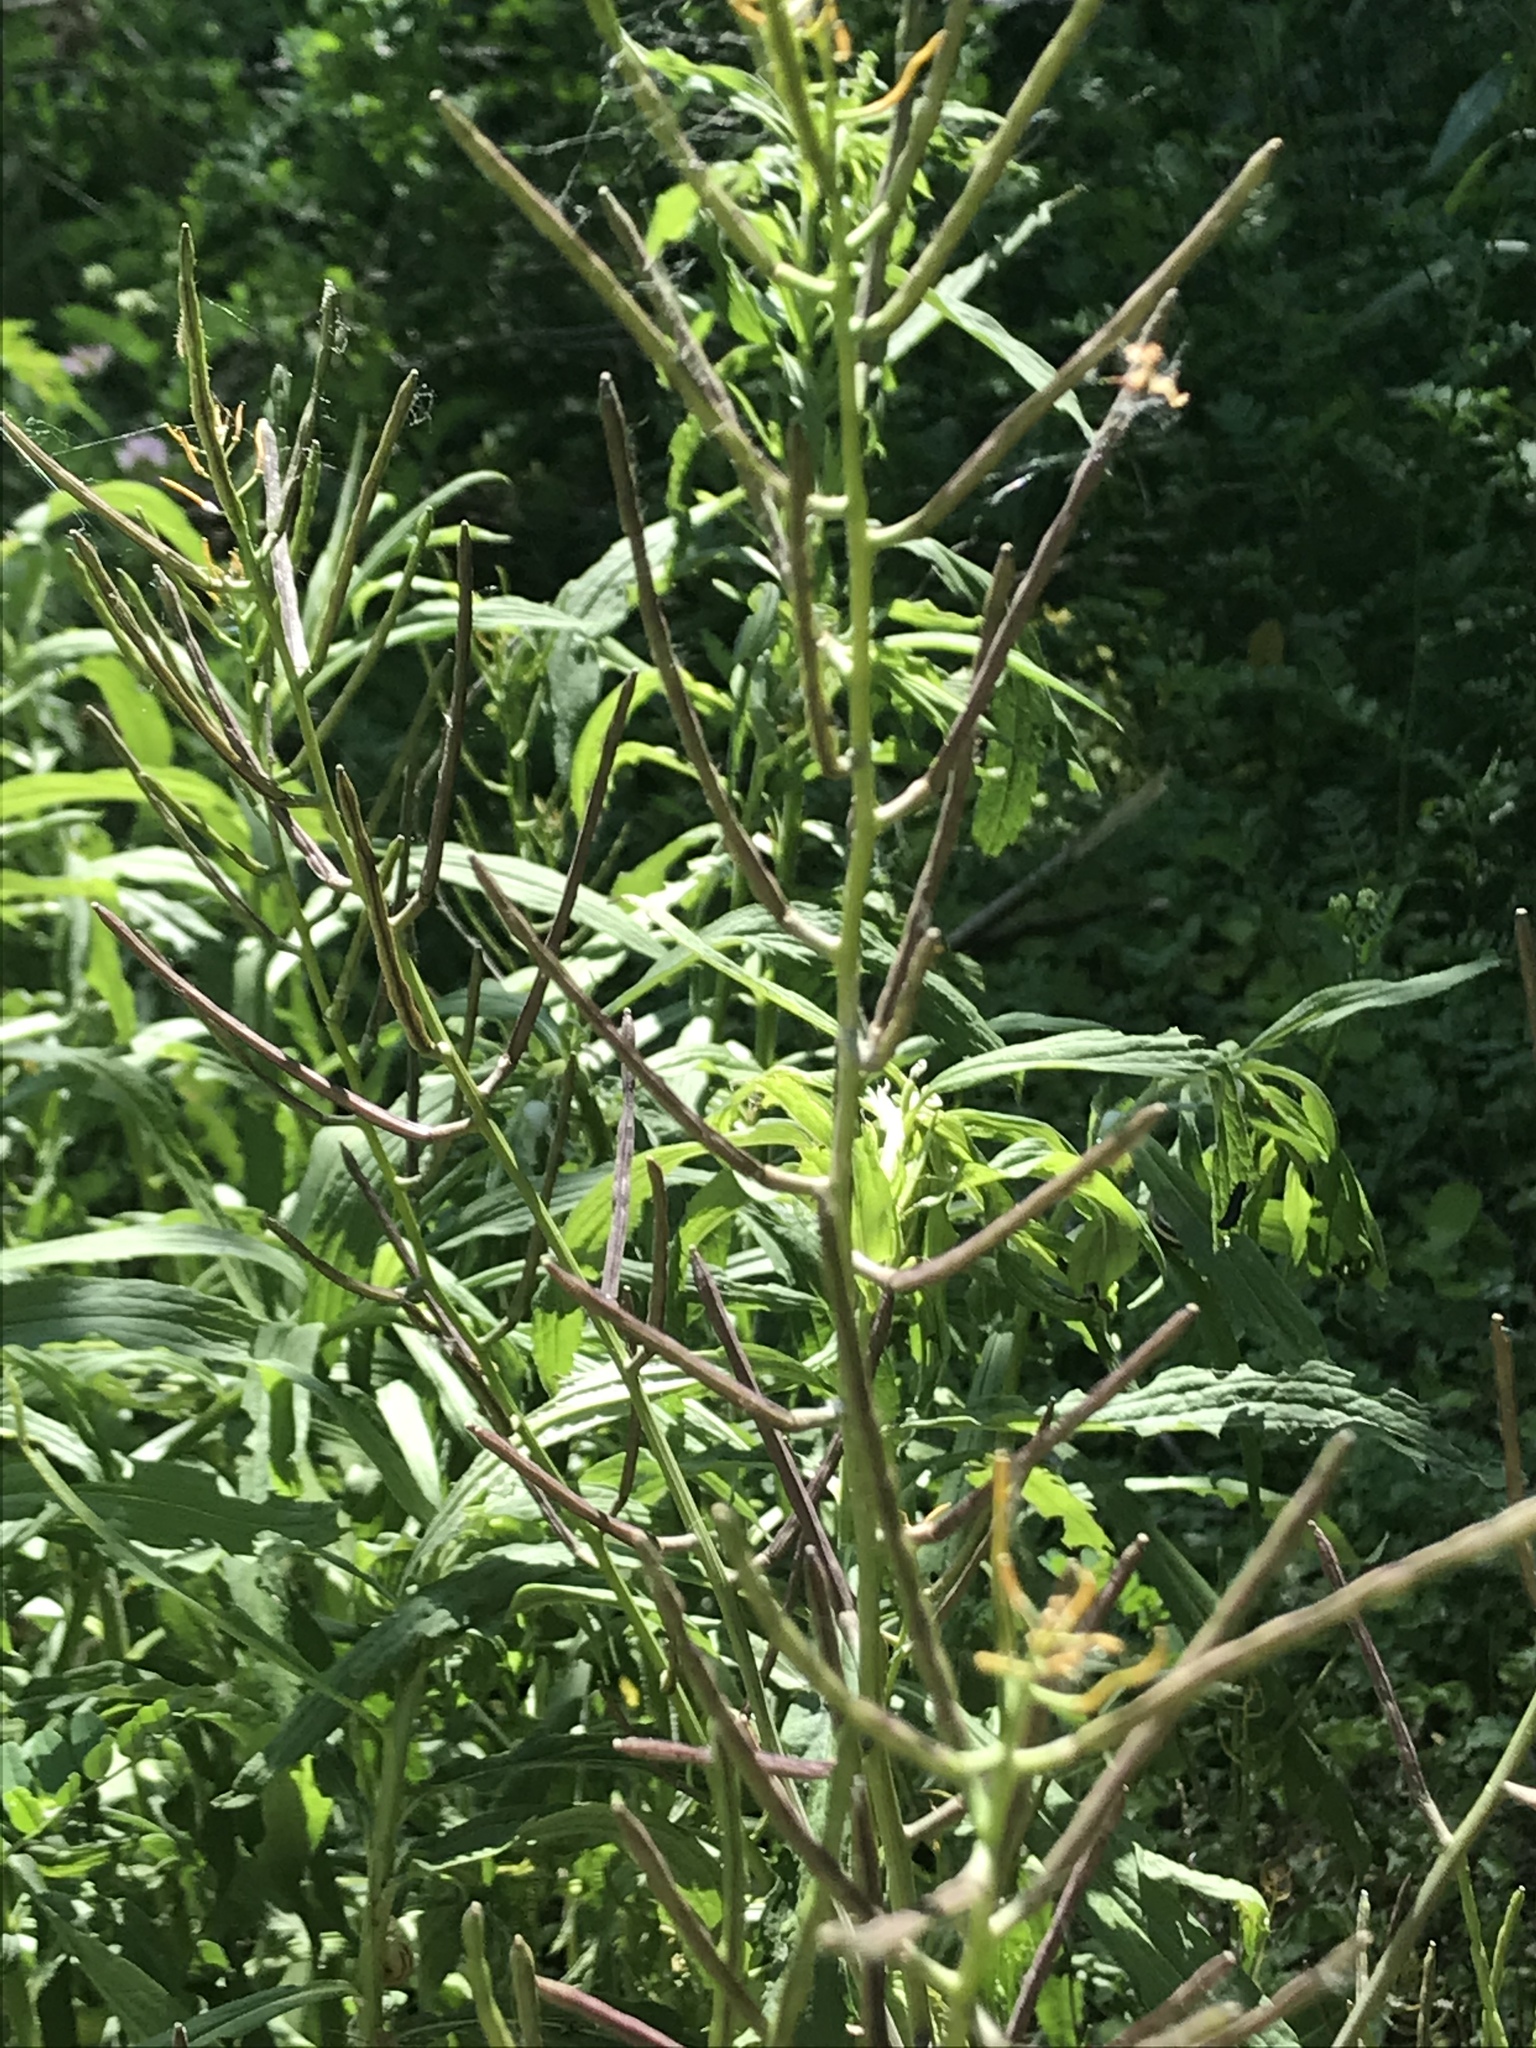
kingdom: Plantae
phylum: Tracheophyta
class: Magnoliopsida
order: Brassicales
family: Brassicaceae
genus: Alliaria
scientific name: Alliaria petiolata
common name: Garlic mustard
